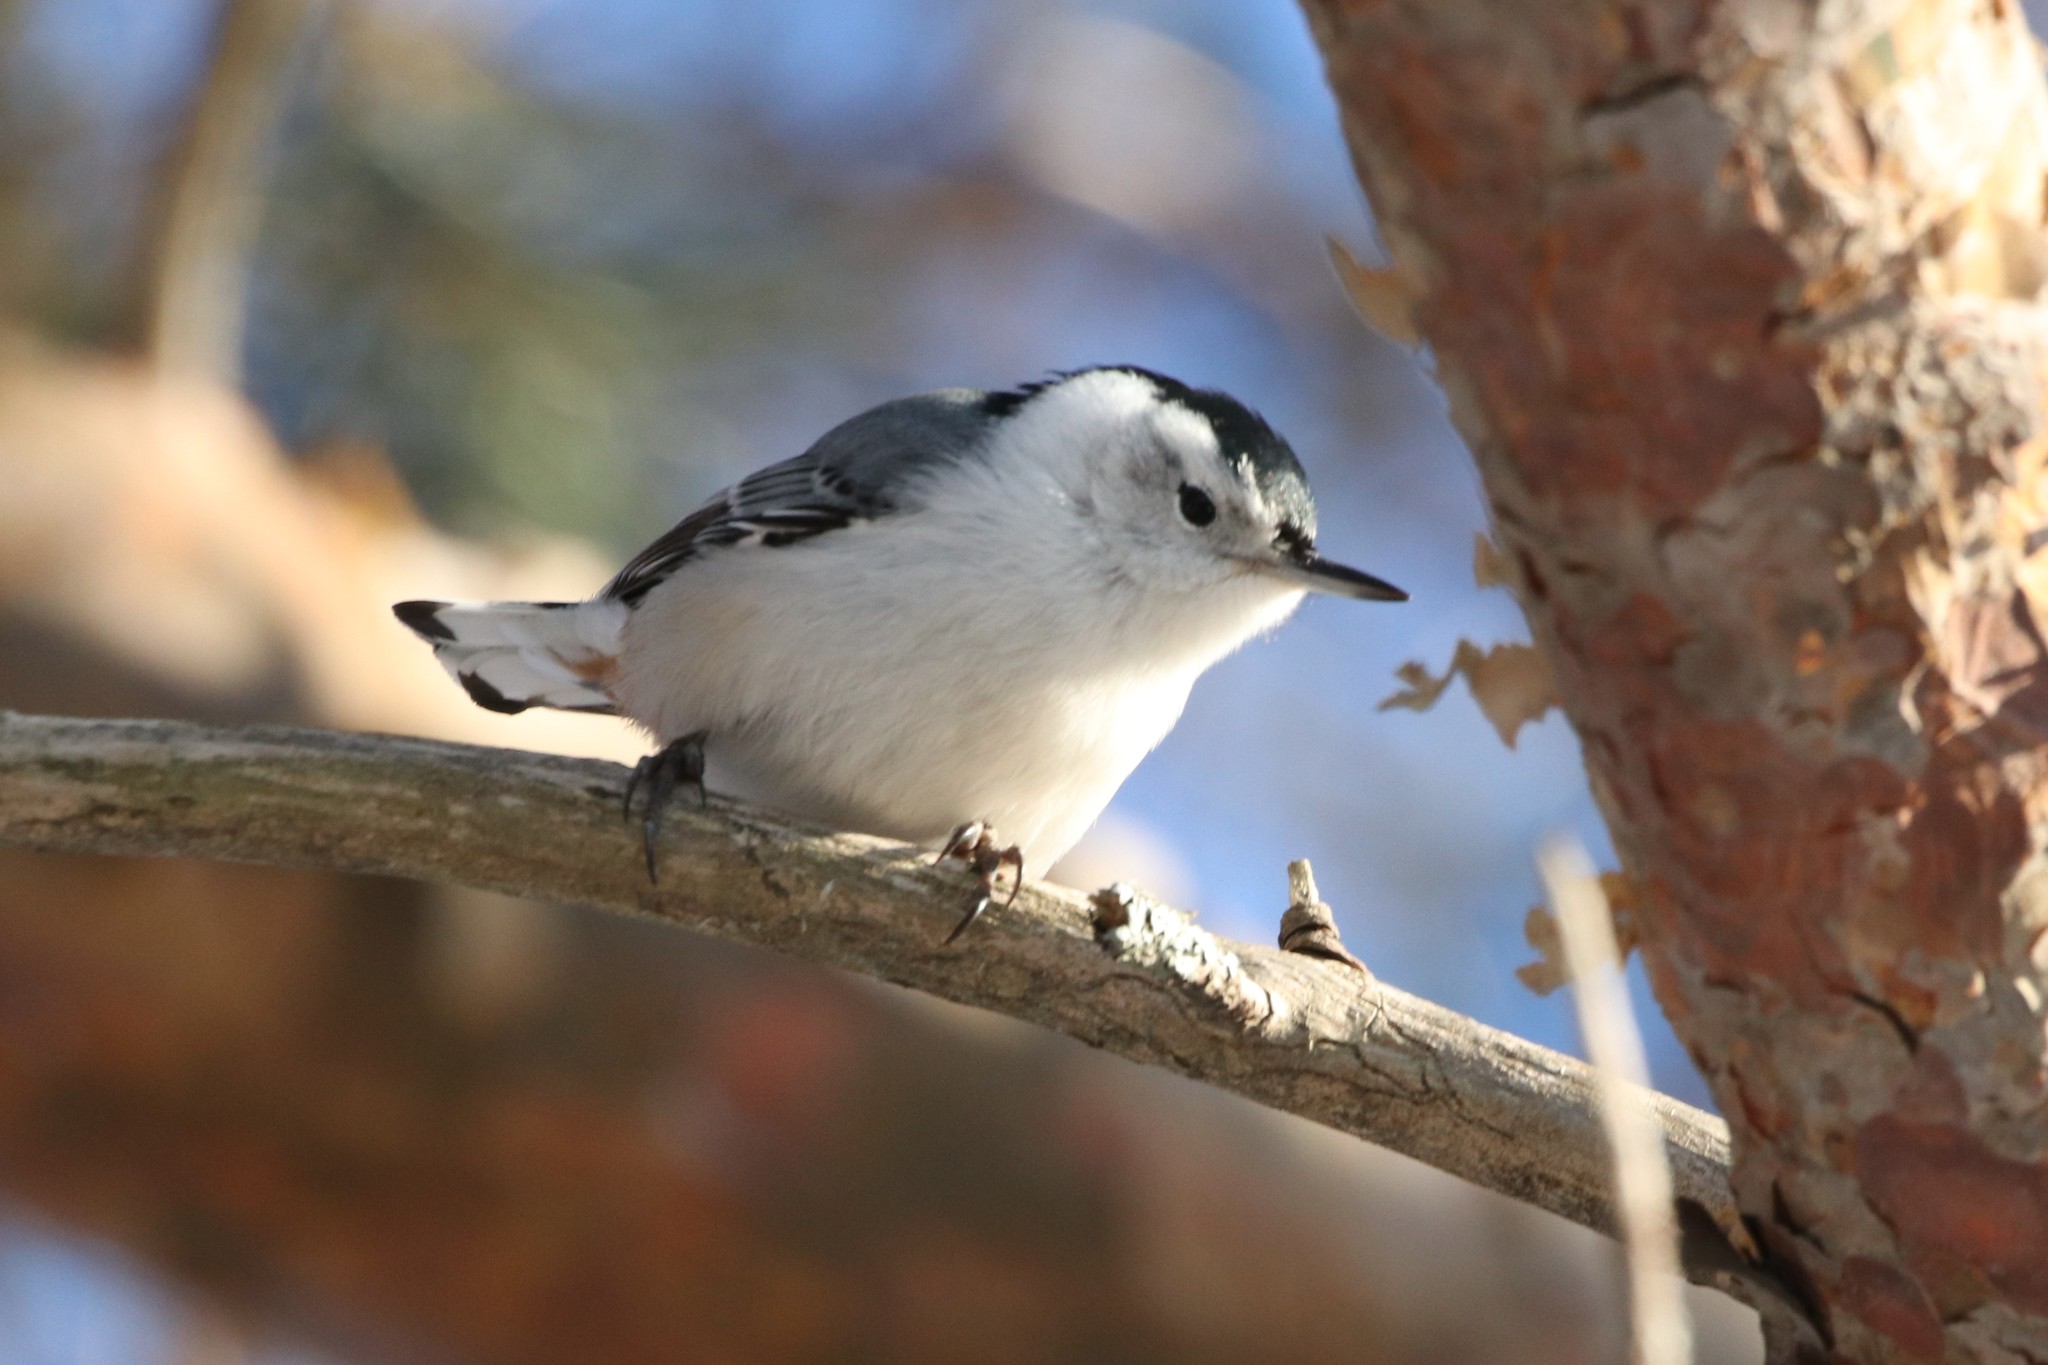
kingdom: Animalia
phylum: Chordata
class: Aves
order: Passeriformes
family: Sittidae
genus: Sitta
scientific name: Sitta carolinensis
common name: White-breasted nuthatch
